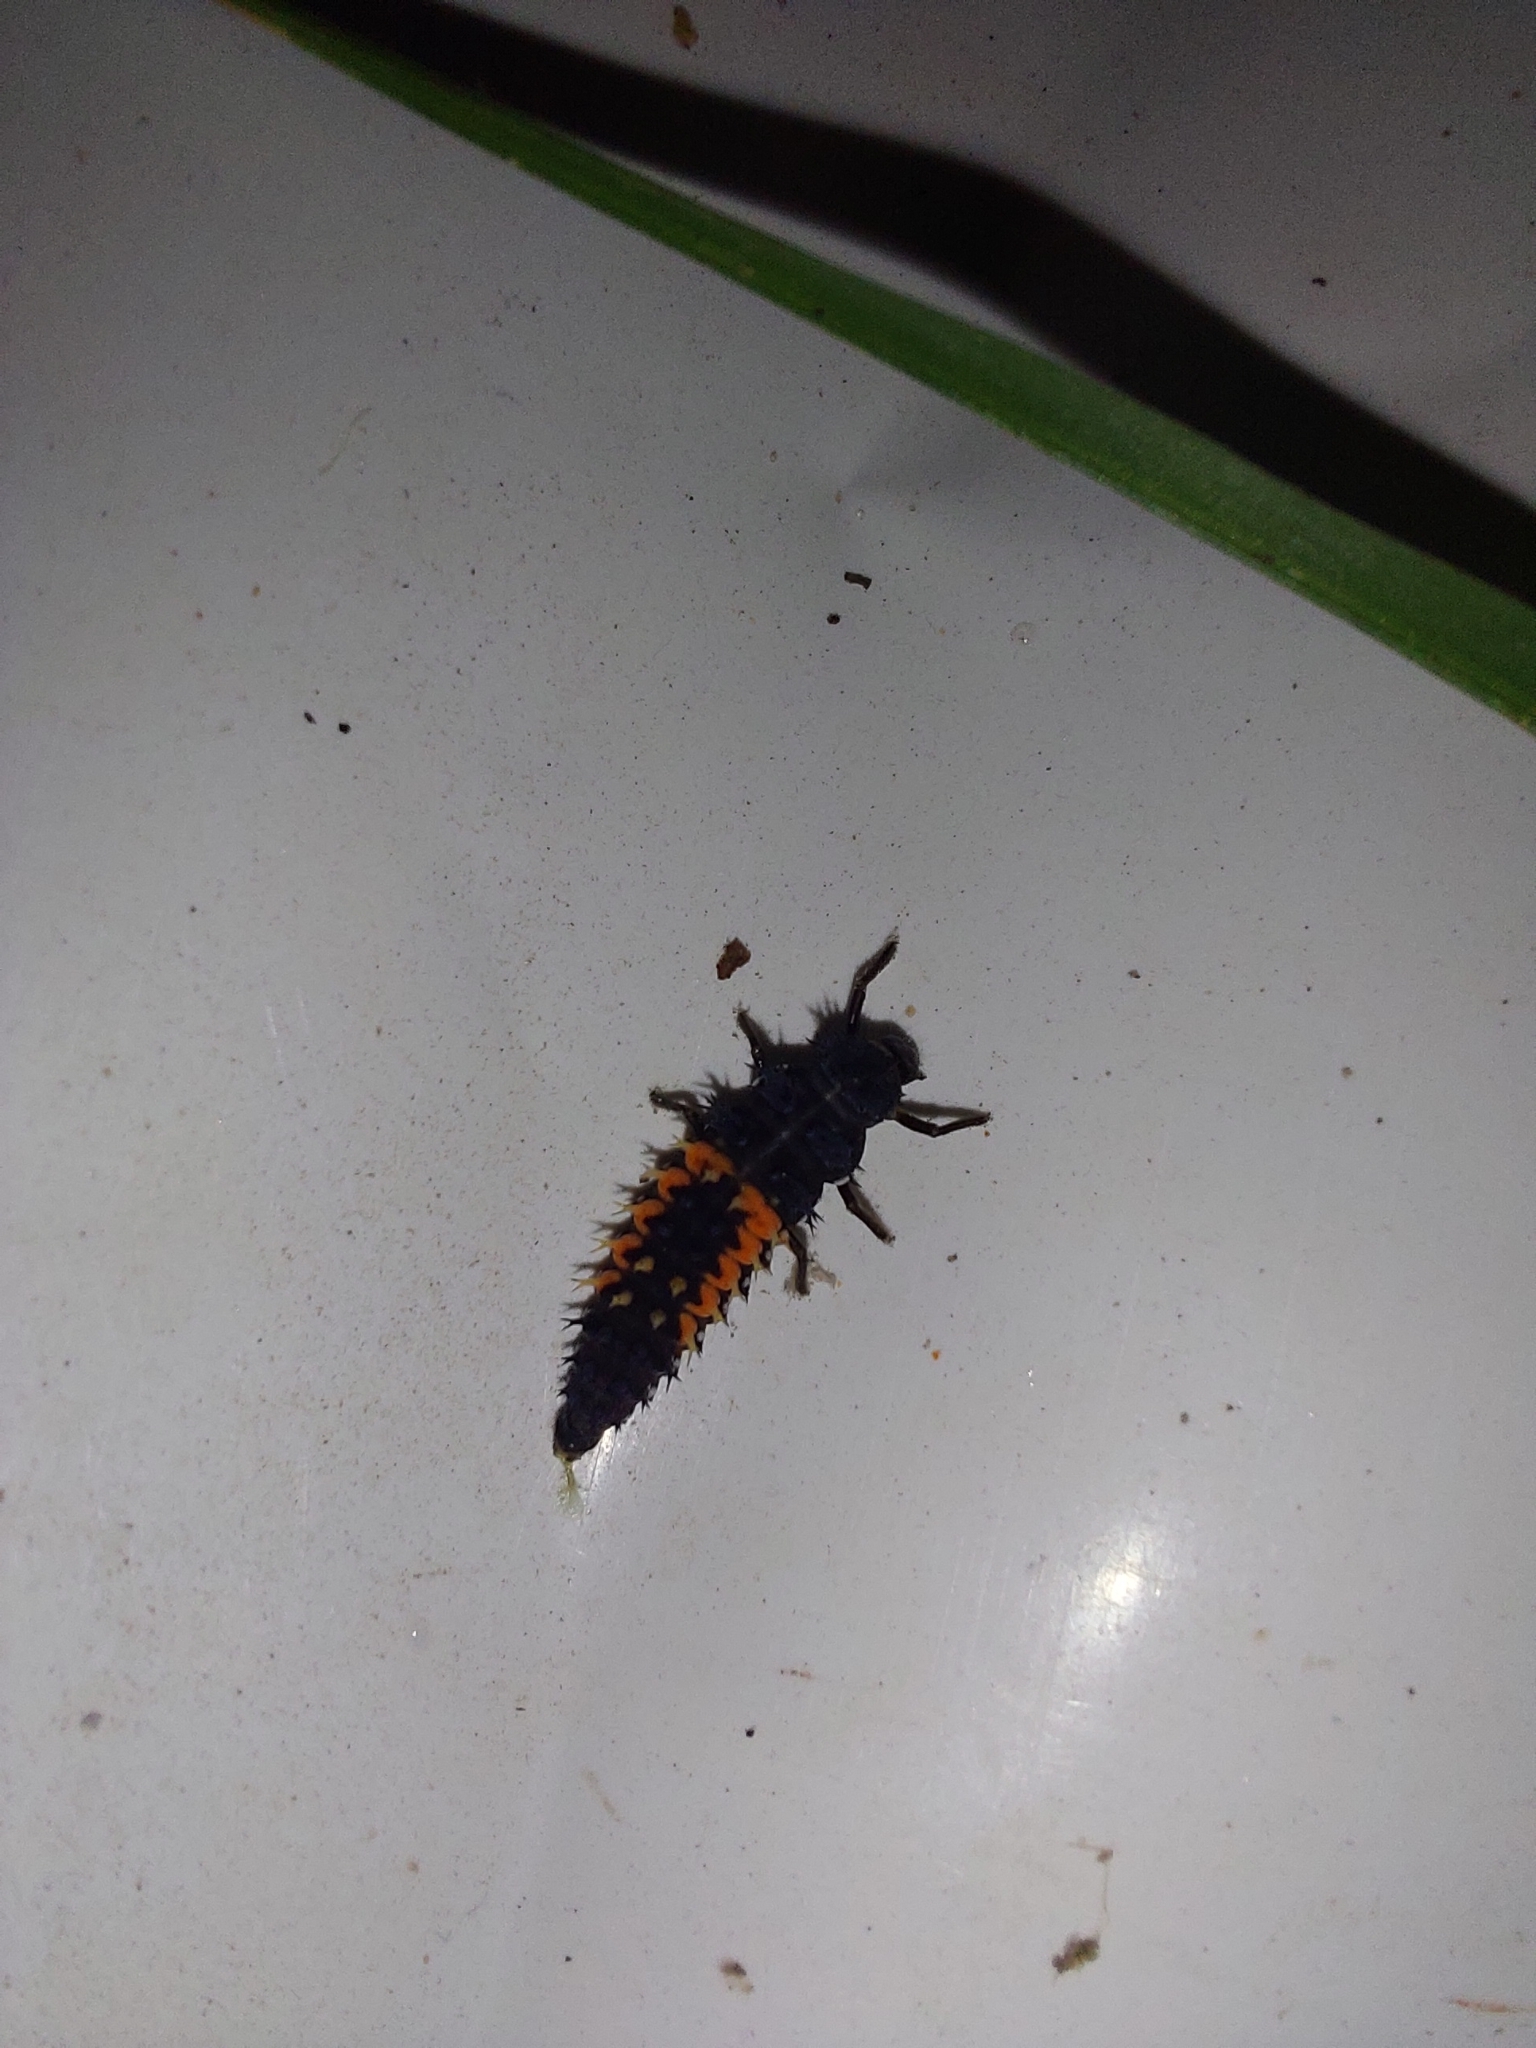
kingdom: Animalia
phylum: Arthropoda
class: Insecta
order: Coleoptera
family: Coccinellidae
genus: Harmonia
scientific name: Harmonia axyridis
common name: Harlequin ladybird
